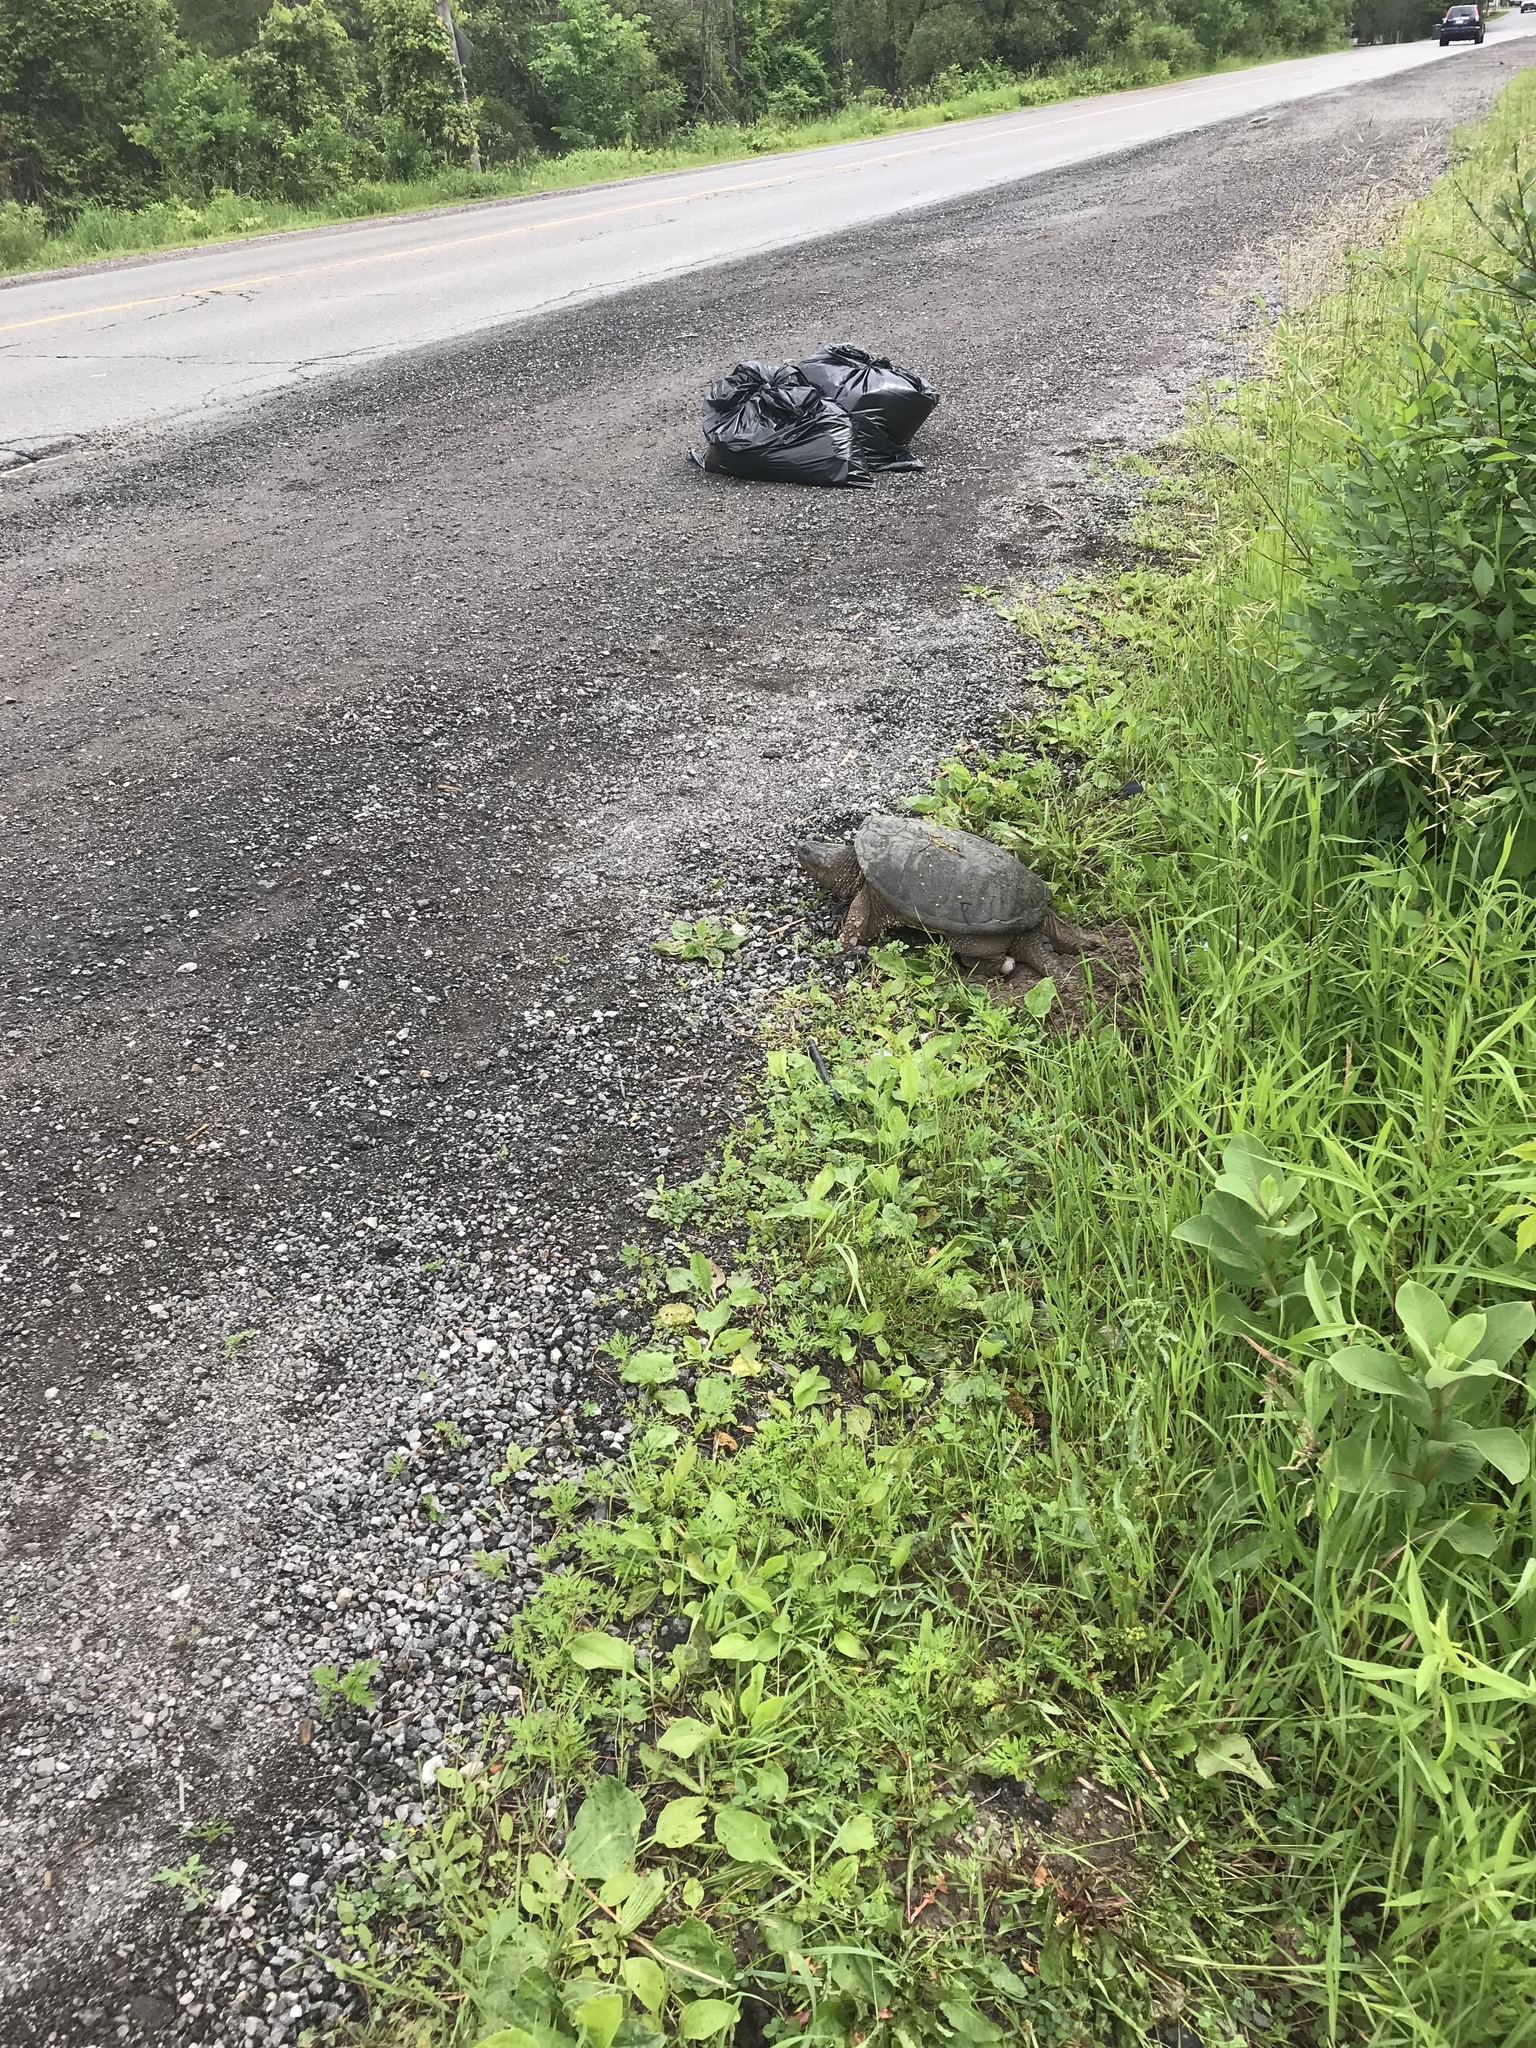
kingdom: Animalia
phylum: Chordata
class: Testudines
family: Chelydridae
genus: Chelydra
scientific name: Chelydra serpentina
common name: Common snapping turtle
